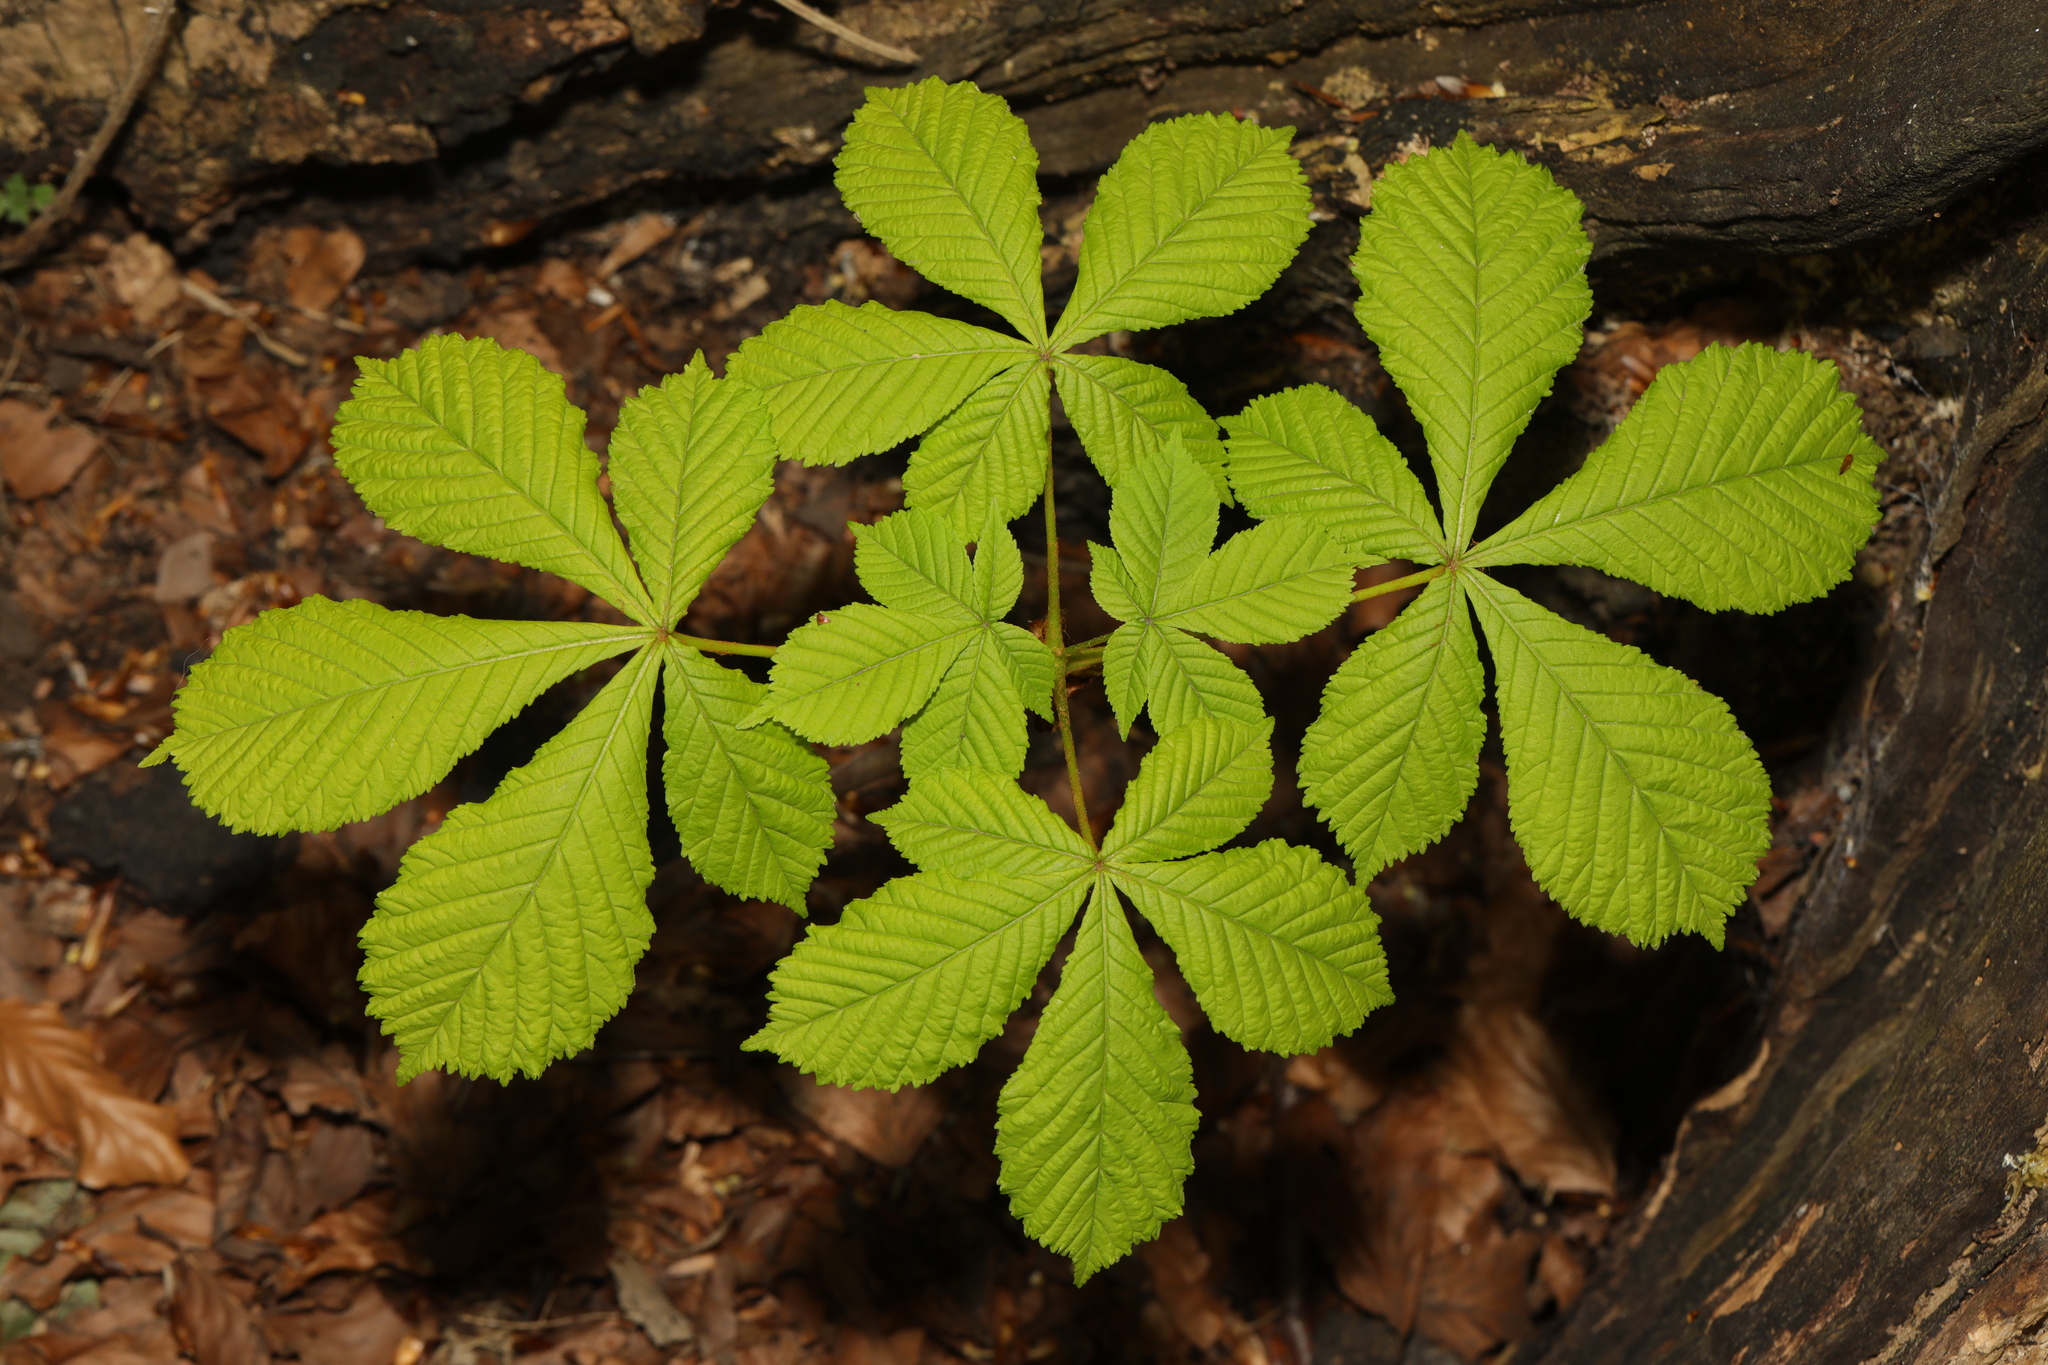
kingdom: Plantae
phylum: Tracheophyta
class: Magnoliopsida
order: Sapindales
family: Sapindaceae
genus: Aesculus
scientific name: Aesculus hippocastanum
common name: Horse-chestnut
